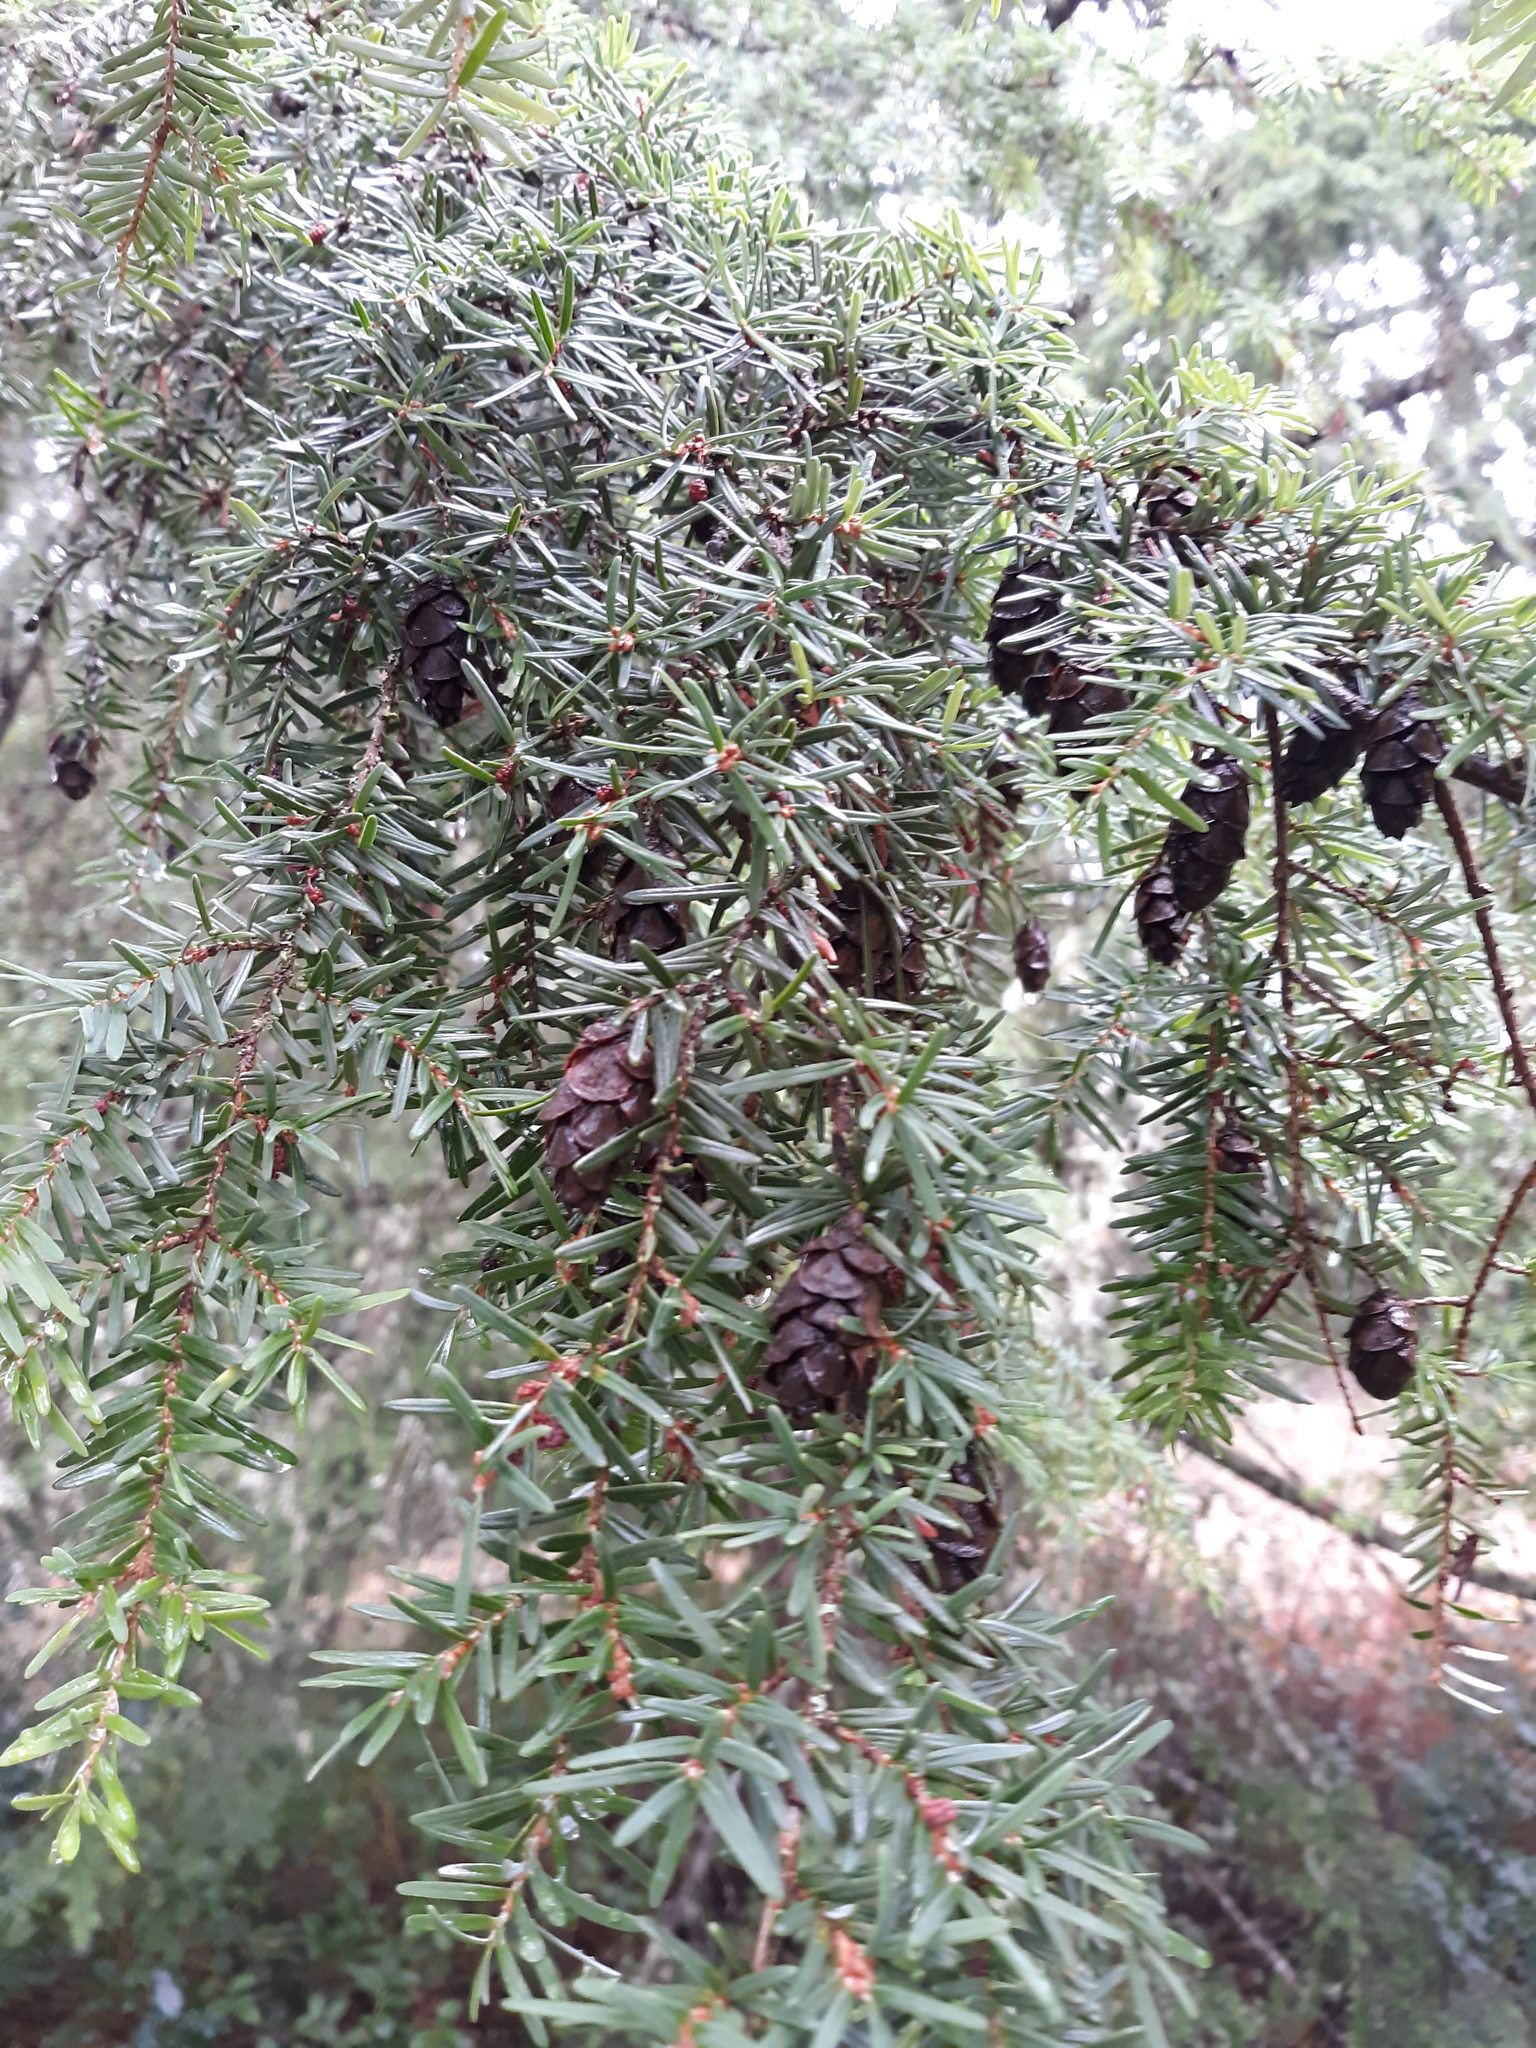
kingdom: Plantae
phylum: Tracheophyta
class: Pinopsida
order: Pinales
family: Pinaceae
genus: Tsuga
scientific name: Tsuga heterophylla
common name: Western hemlock
